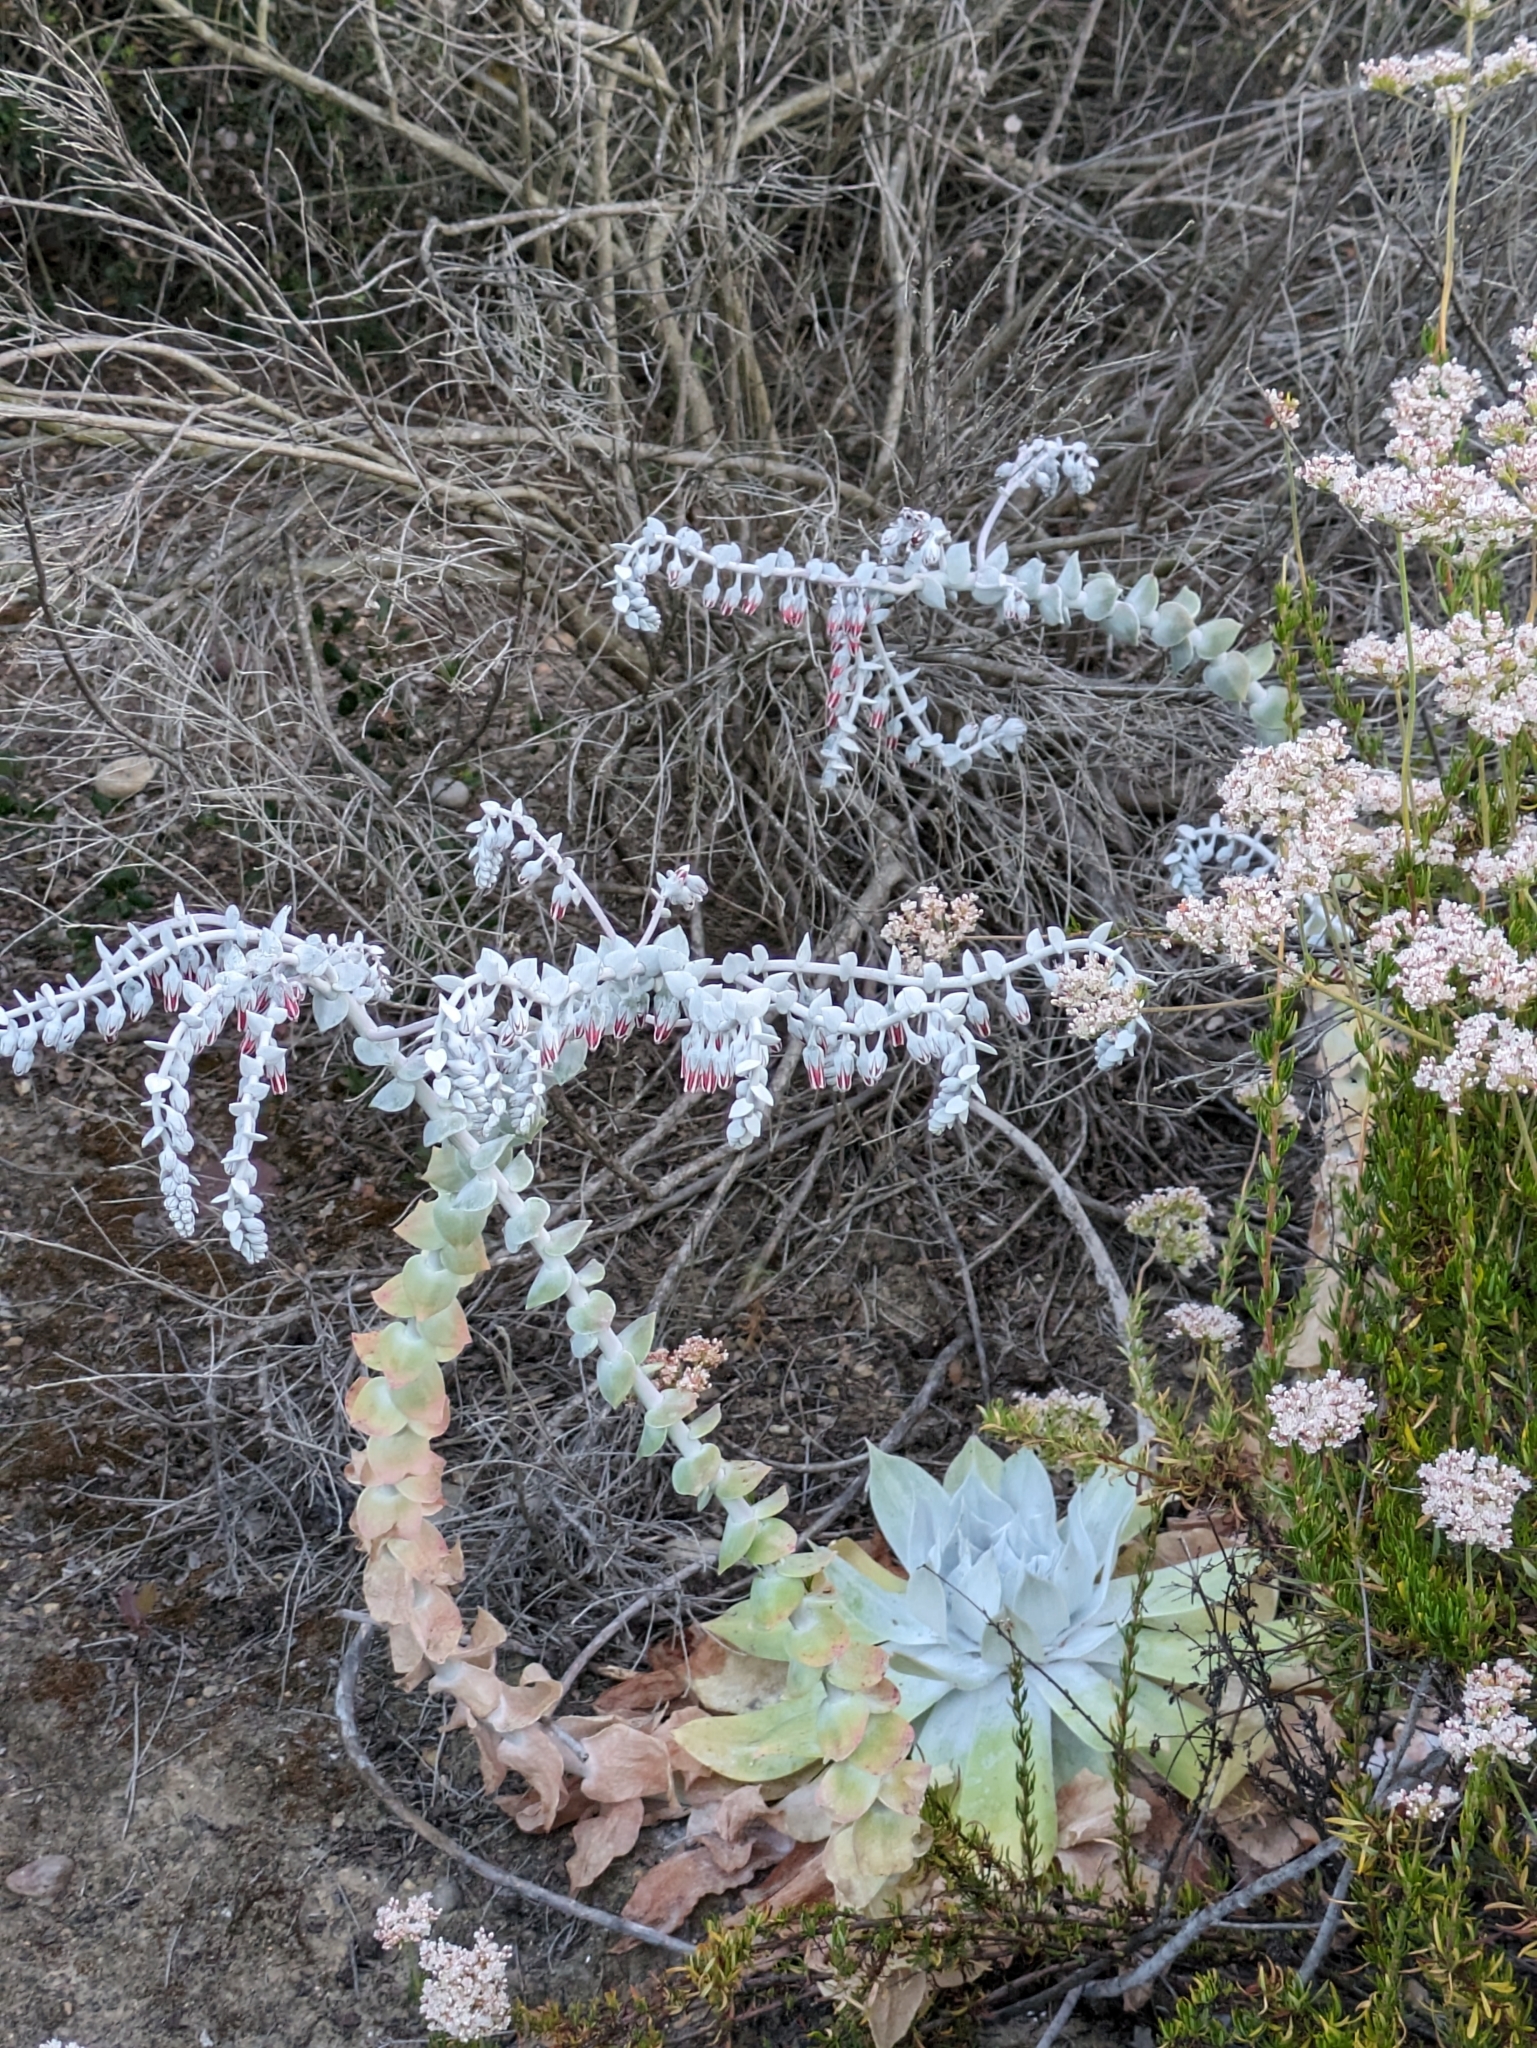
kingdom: Plantae
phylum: Tracheophyta
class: Magnoliopsida
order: Saxifragales
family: Crassulaceae
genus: Dudleya
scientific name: Dudleya pulverulenta
